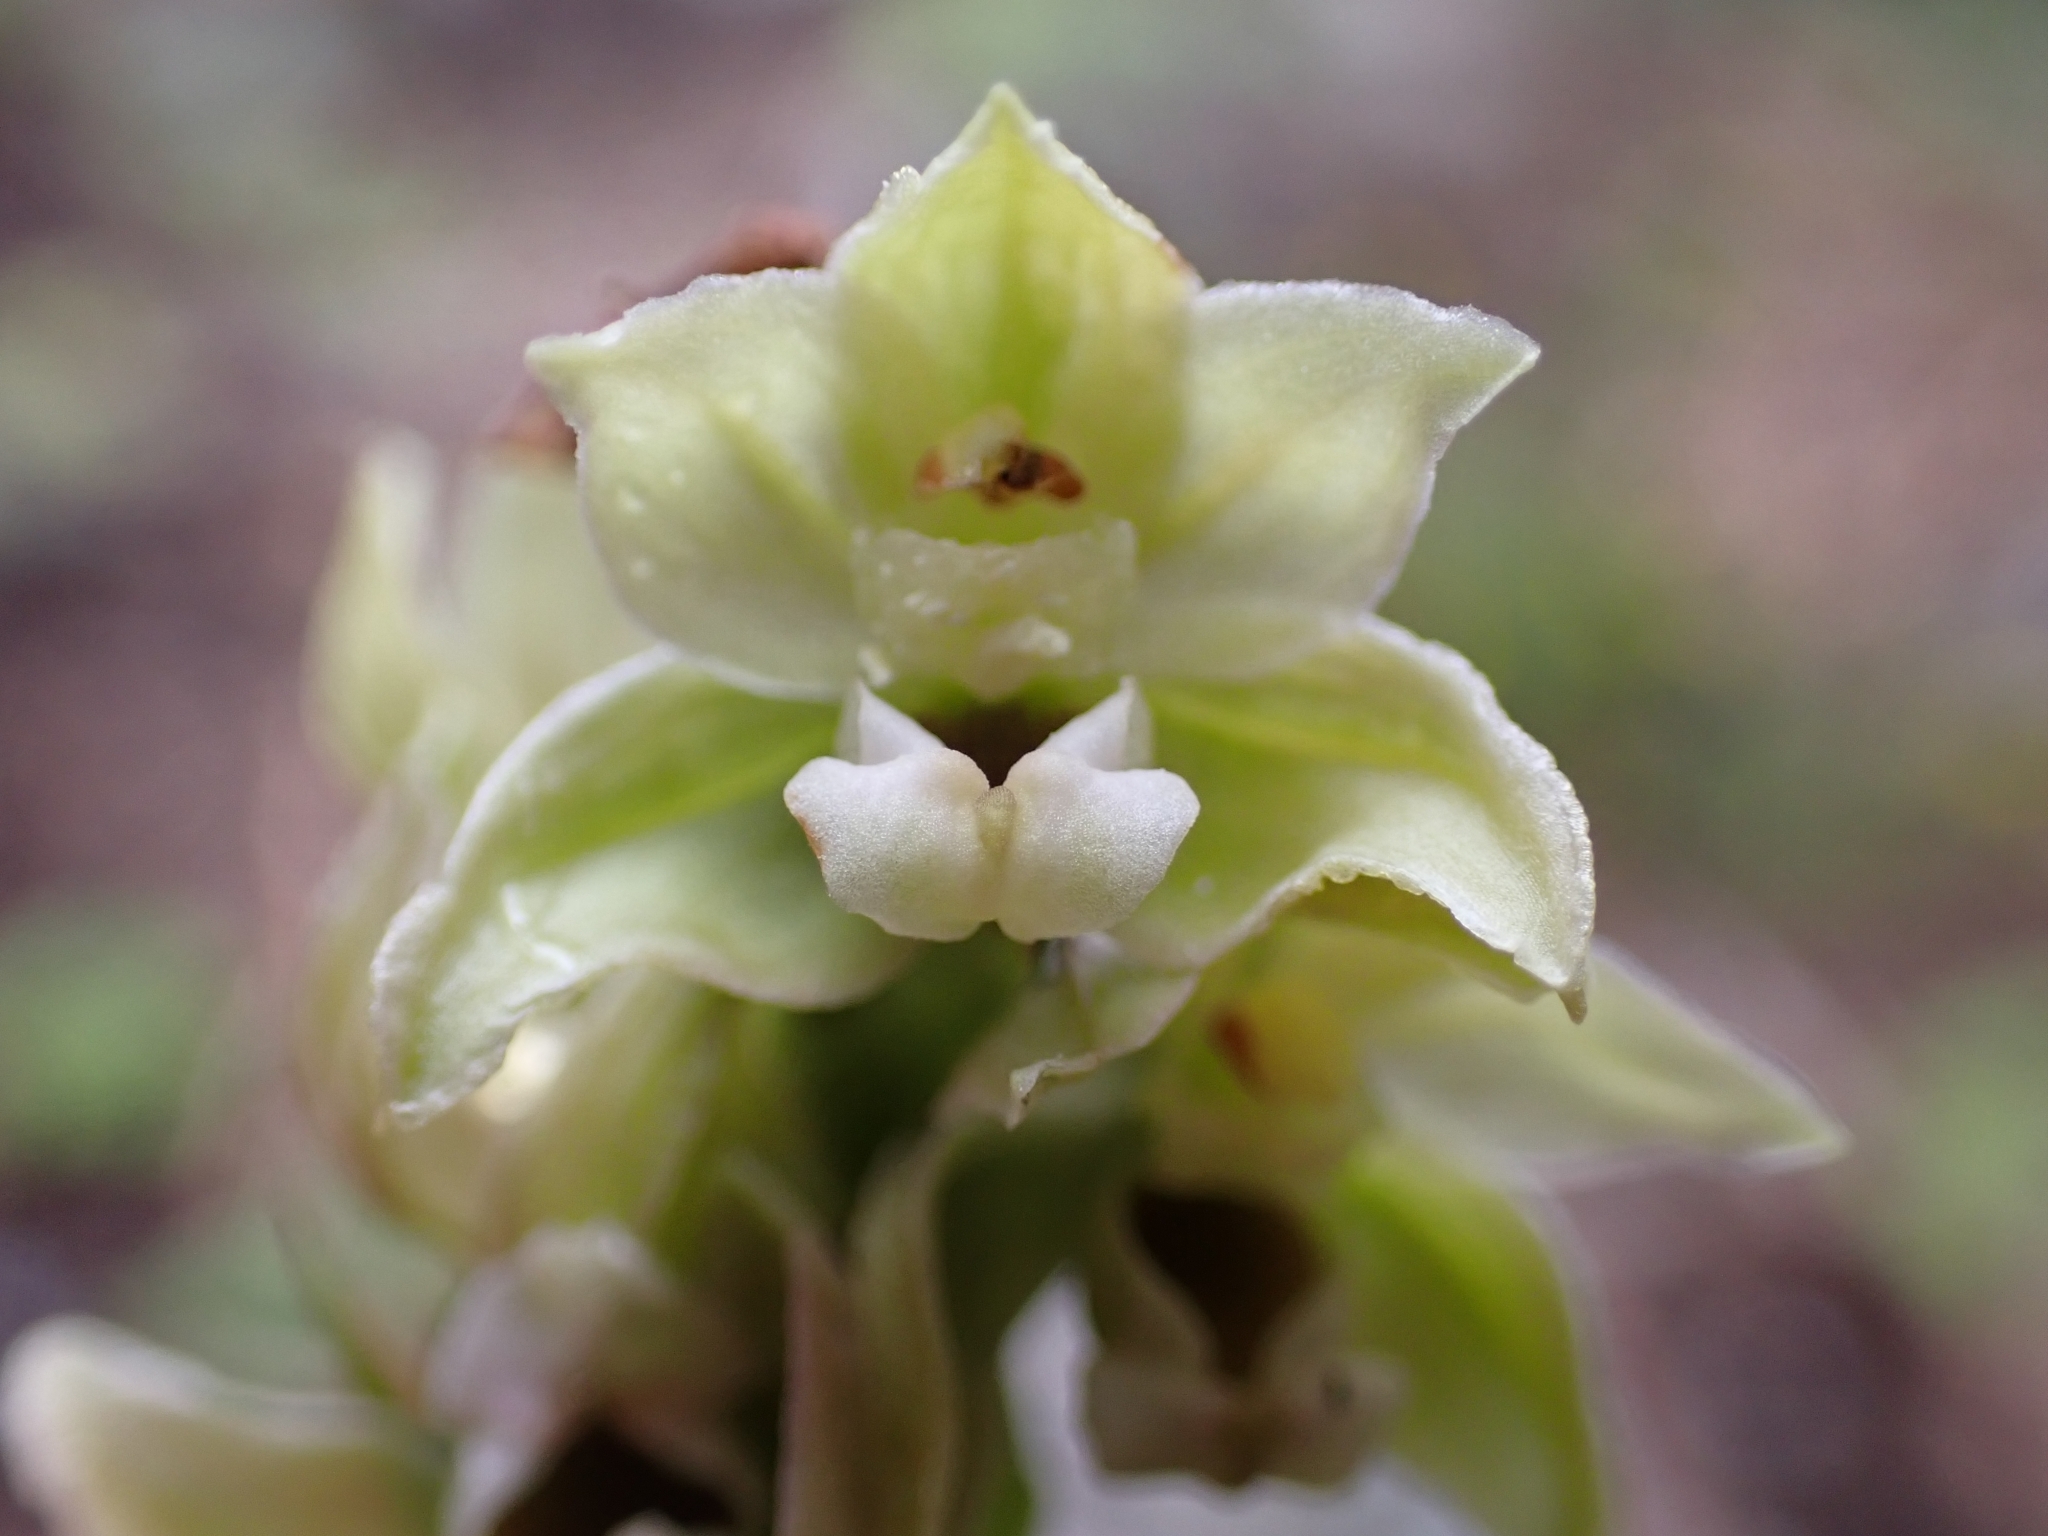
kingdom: Plantae
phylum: Tracheophyta
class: Liliopsida
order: Asparagales
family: Orchidaceae
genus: Epipactis
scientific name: Epipactis helleborine
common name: Broad-leaved helleborine
